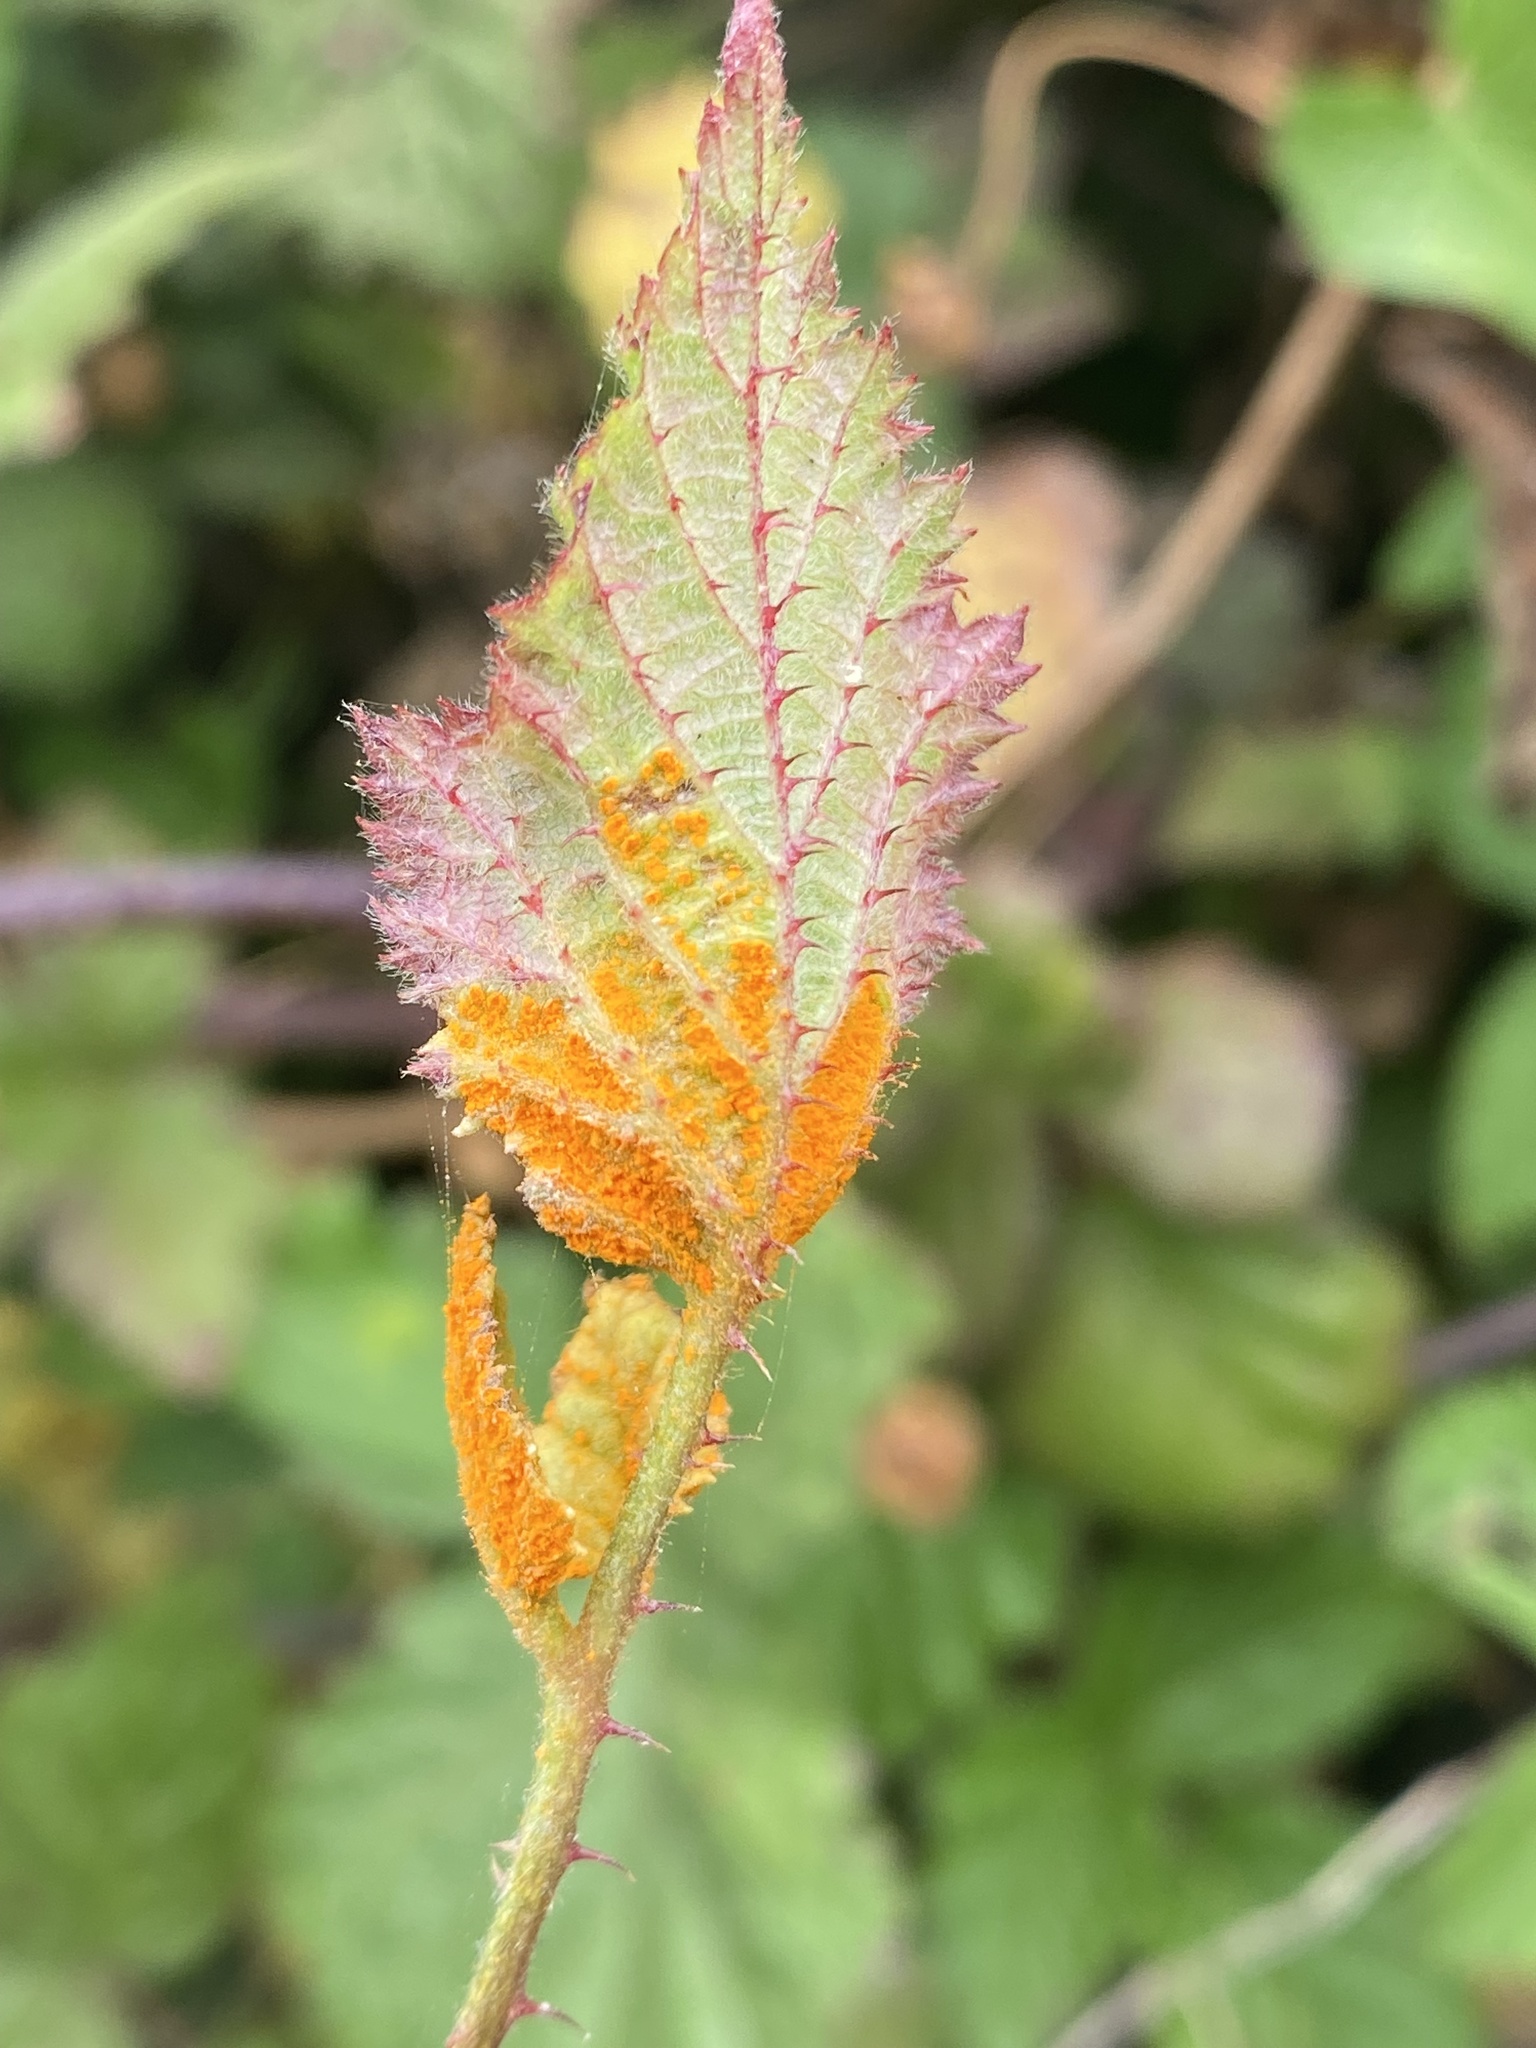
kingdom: Fungi
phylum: Basidiomycota
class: Pucciniomycetes
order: Pucciniales
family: Phragmidiaceae
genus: Arthuriomyces
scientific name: Arthuriomyces peckianus
